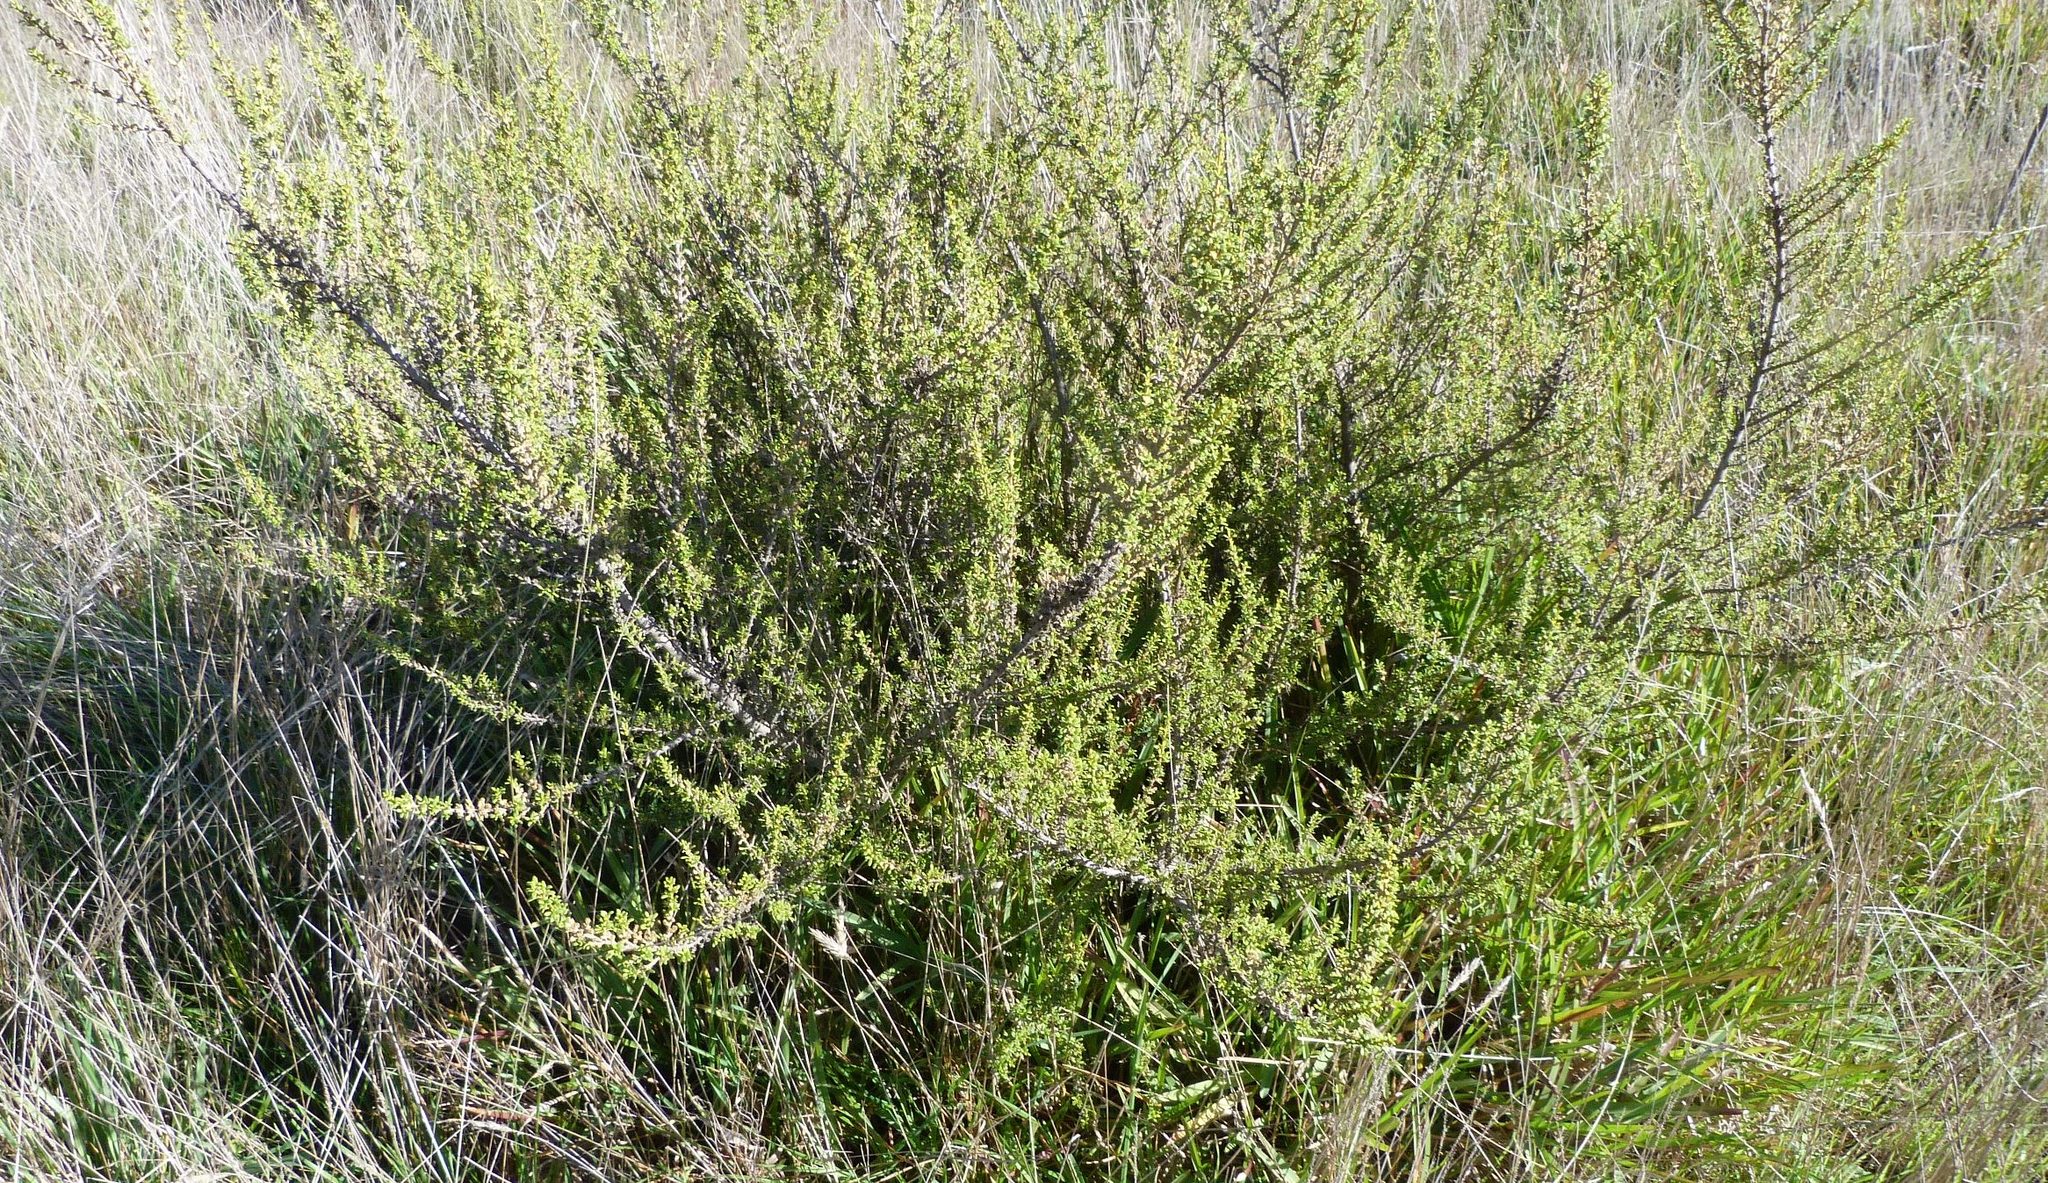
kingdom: Plantae
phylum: Tracheophyta
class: Magnoliopsida
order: Asterales
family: Asteraceae
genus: Olearia
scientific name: Olearia solandri
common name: Coastal daisybush
